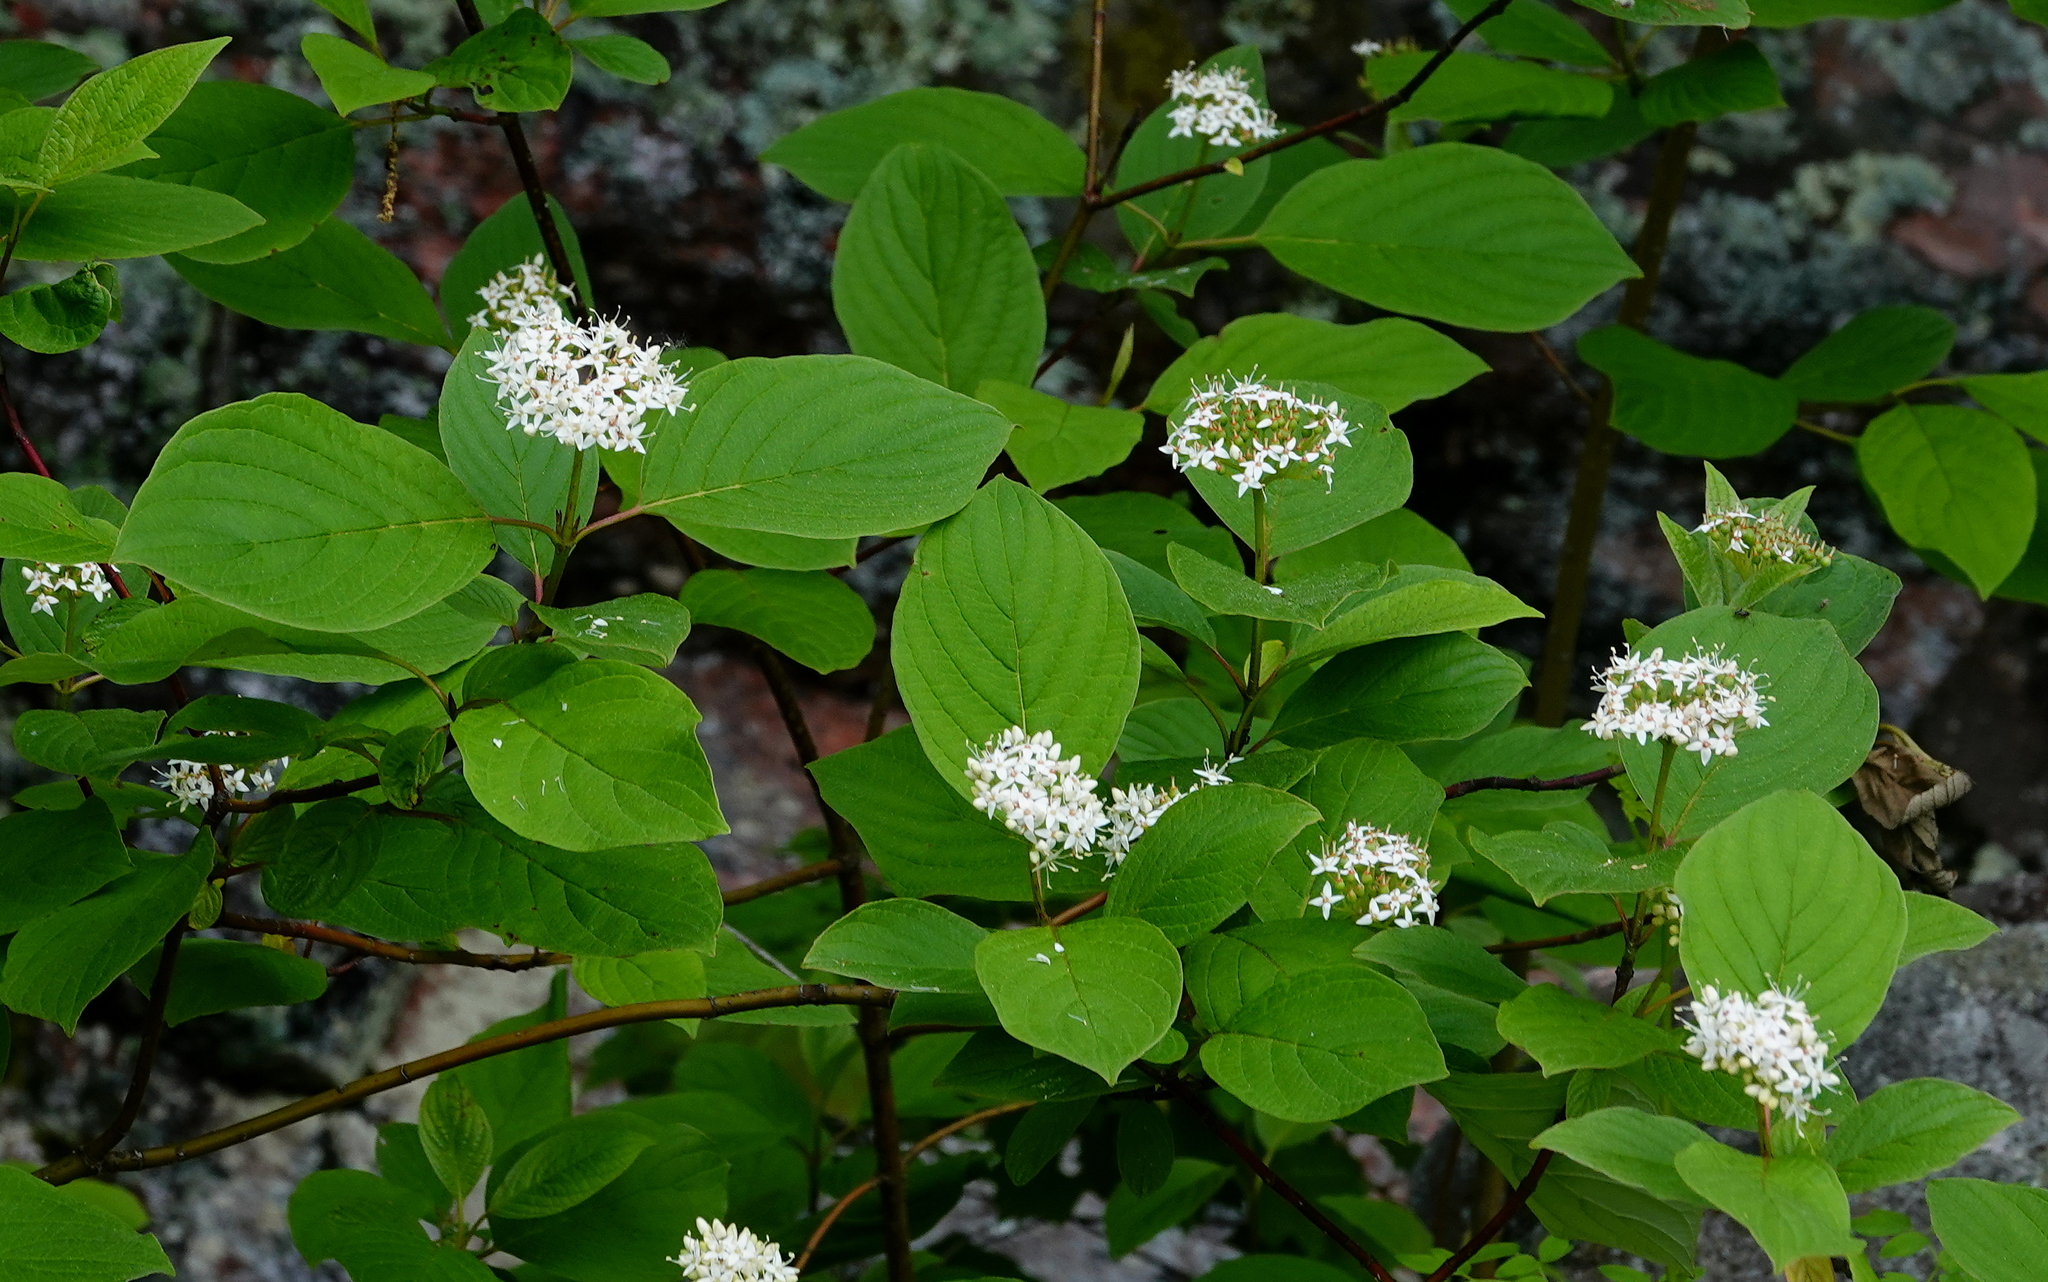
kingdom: Plantae
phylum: Tracheophyta
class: Magnoliopsida
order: Cornales
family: Cornaceae
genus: Cornus
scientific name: Cornus rugosa
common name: Round-leaf dogwood
